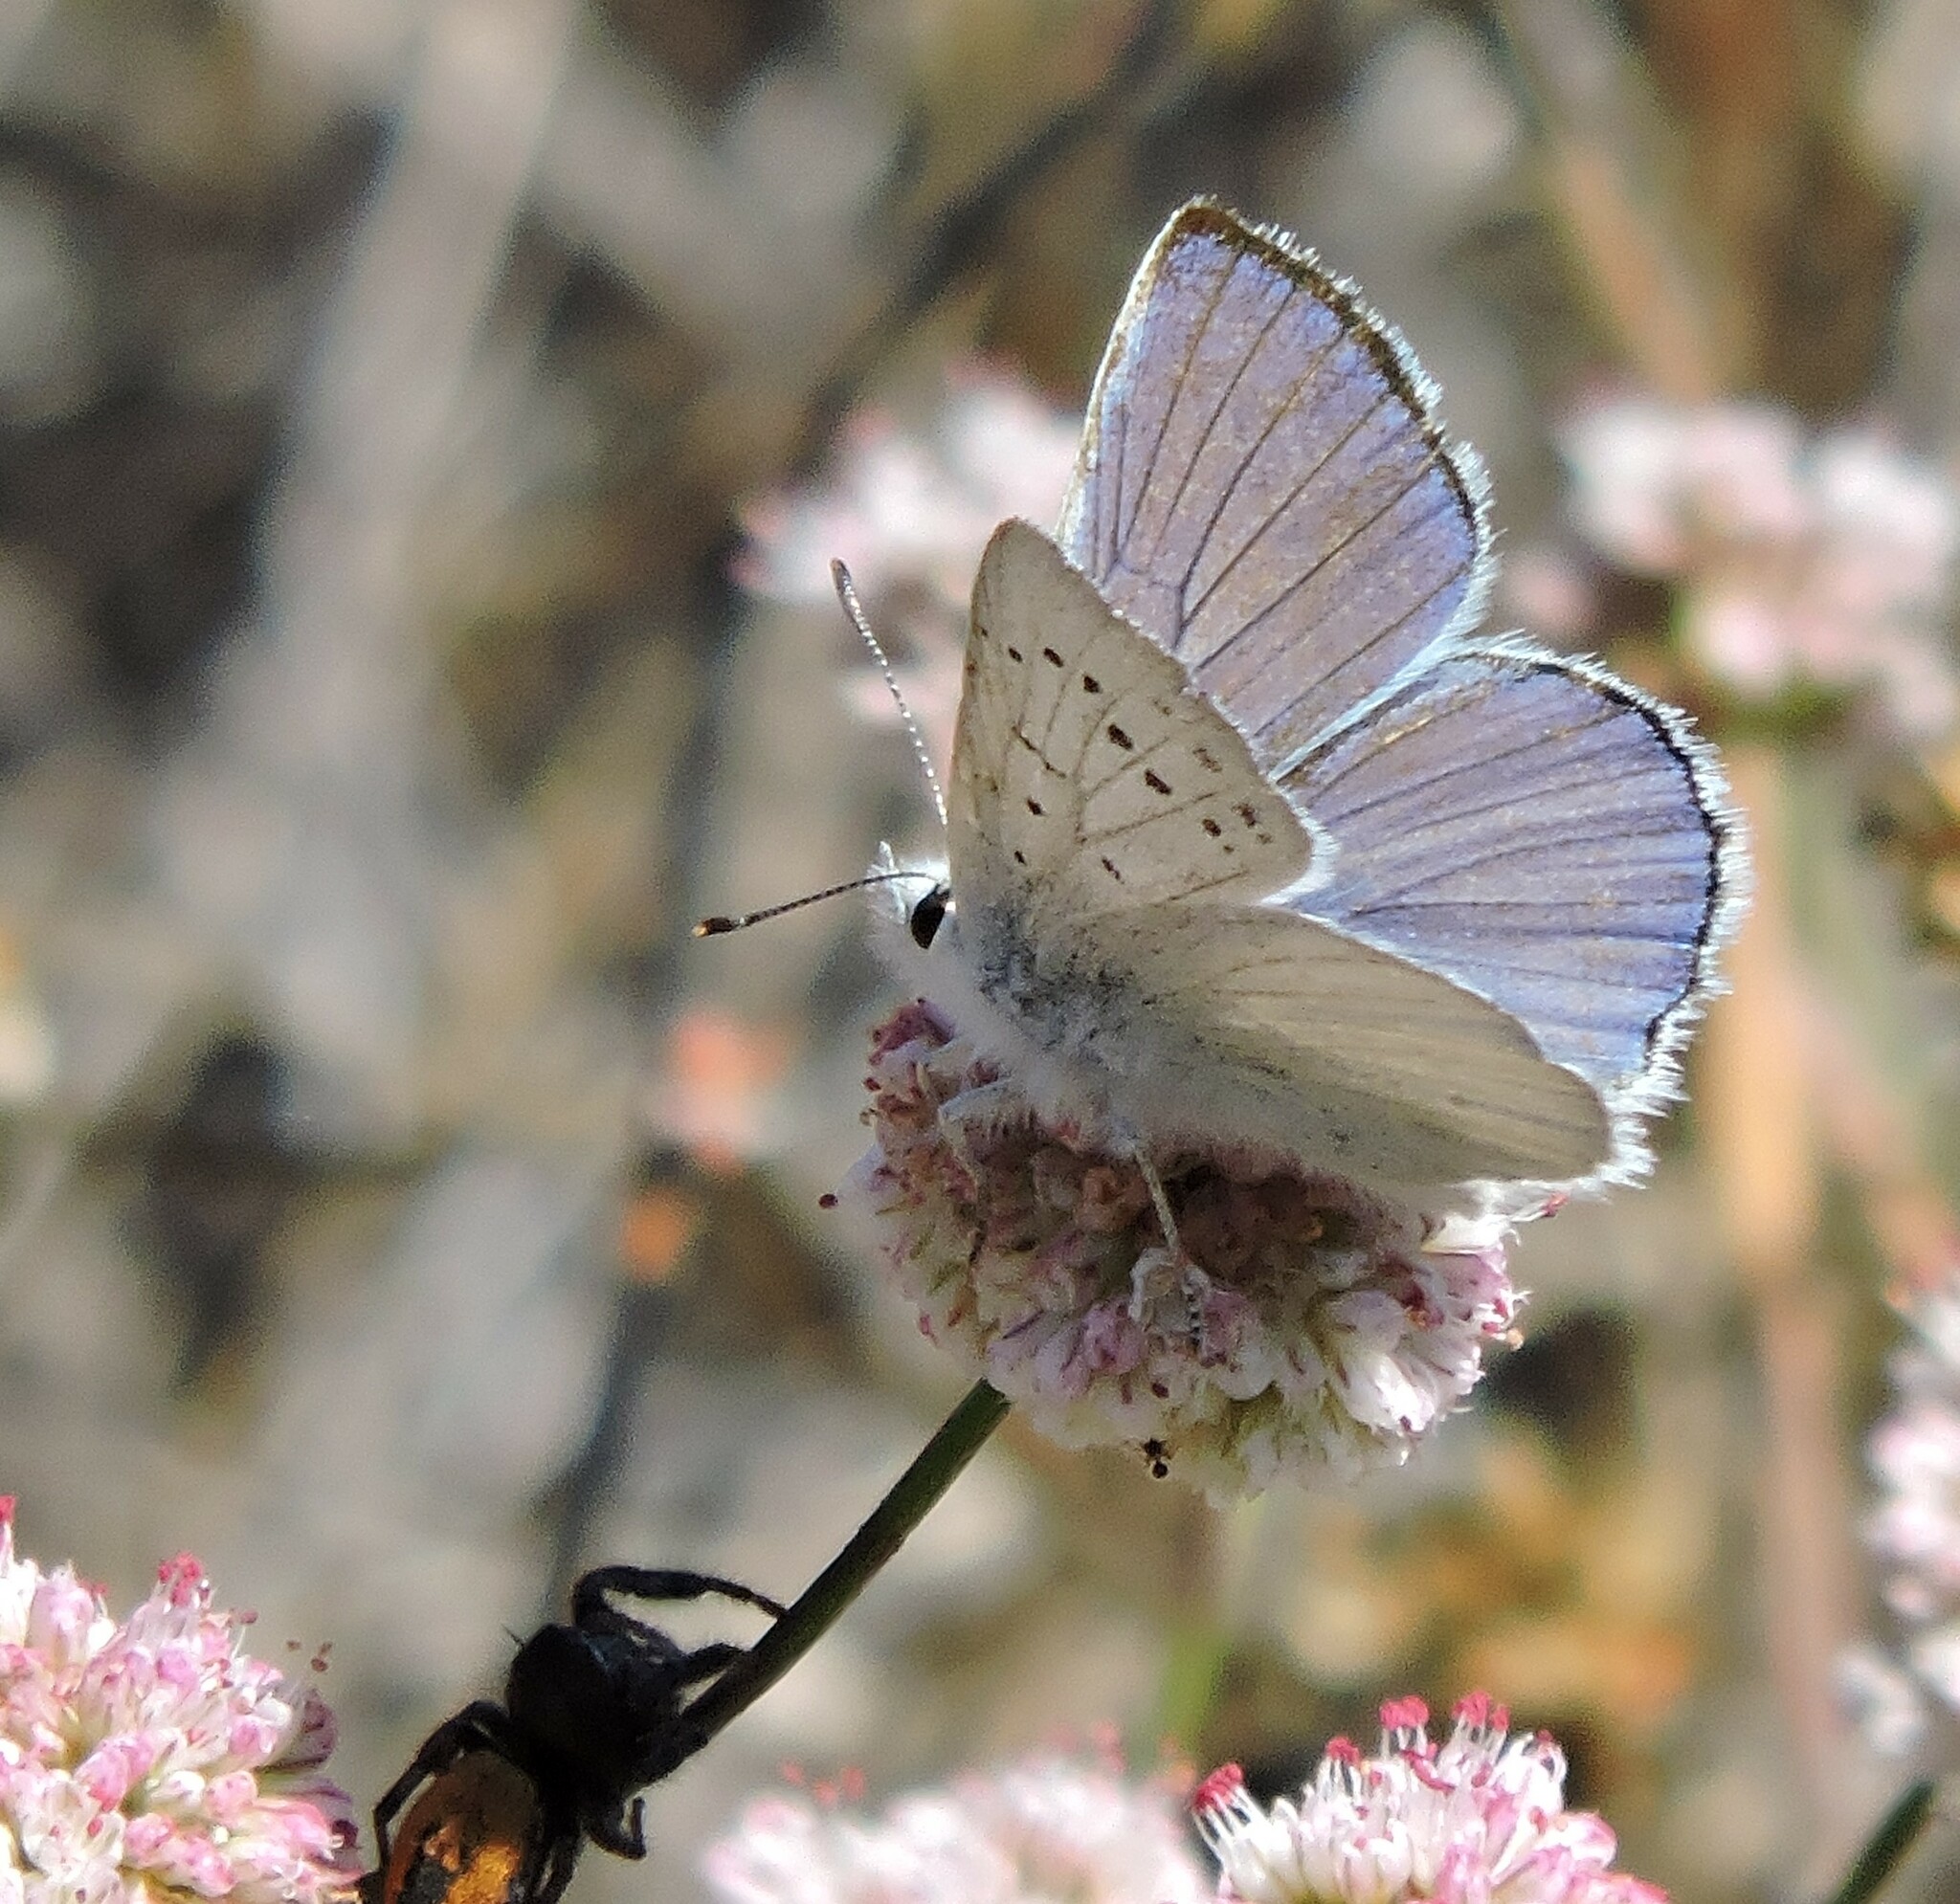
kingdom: Animalia
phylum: Arthropoda
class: Arachnida
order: Araneae
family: Salticidae
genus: Phidippus
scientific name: Phidippus johnsoni
